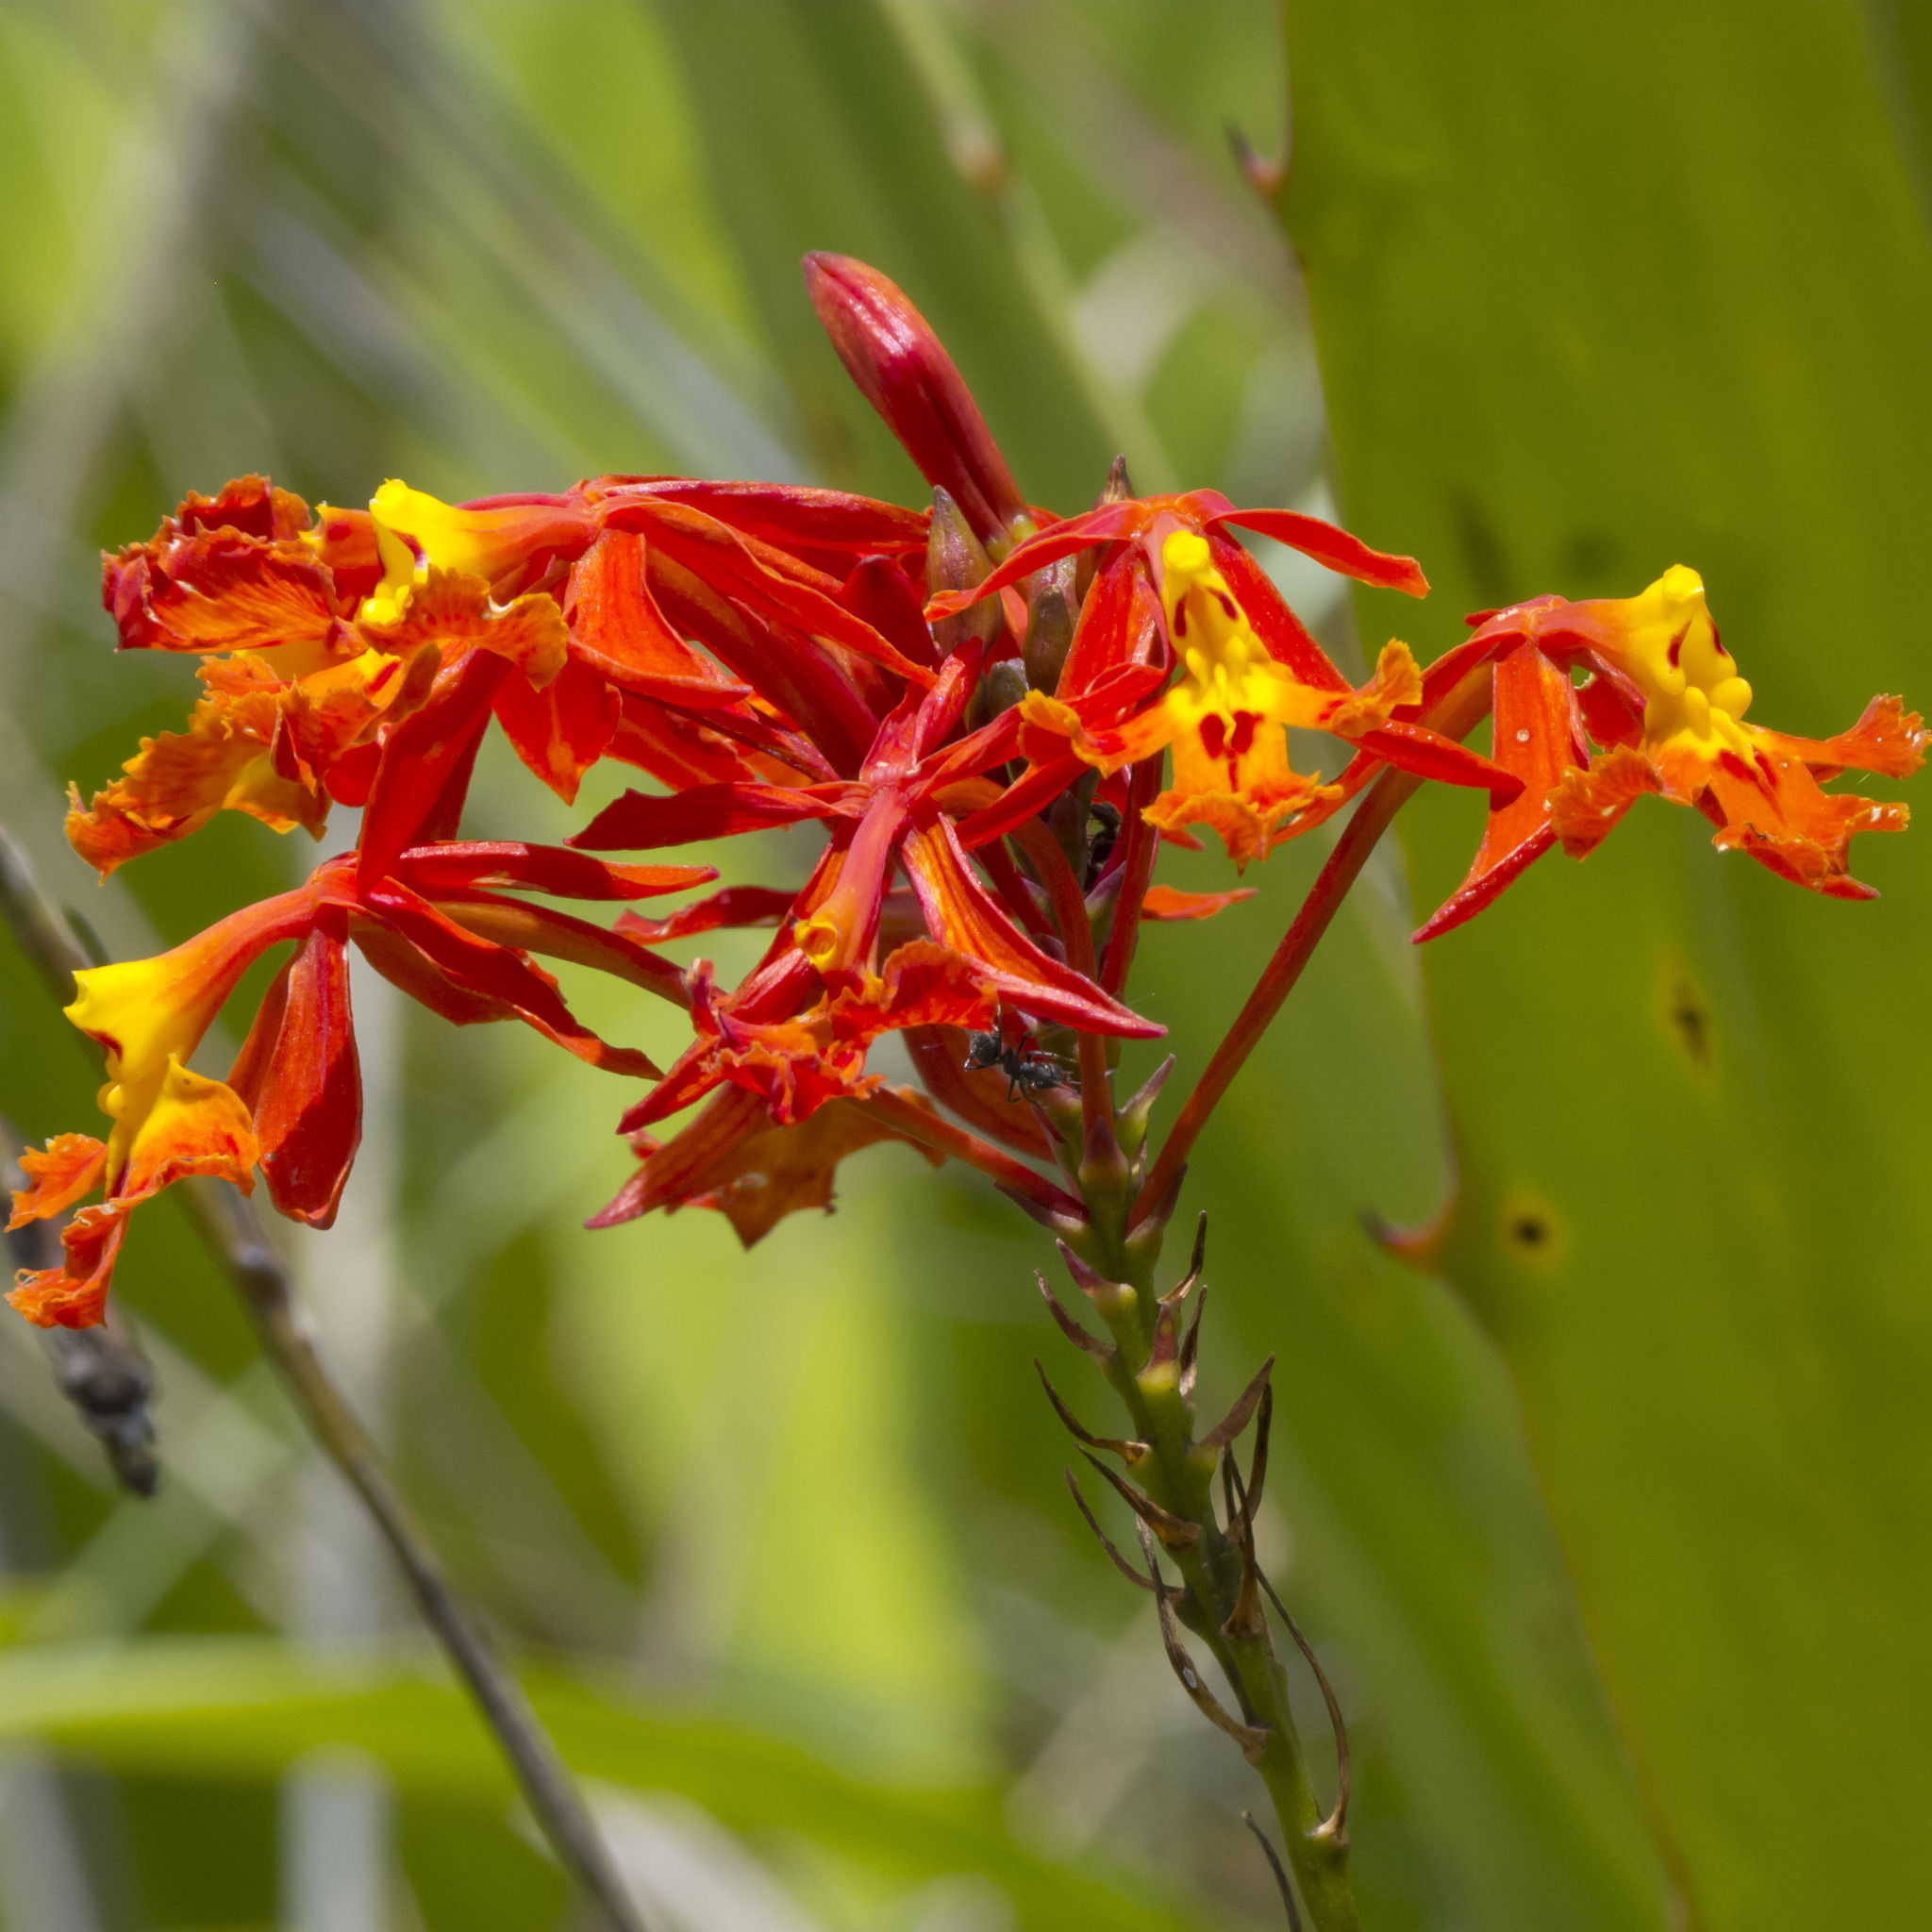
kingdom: Plantae
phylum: Tracheophyta
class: Liliopsida
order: Asparagales
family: Orchidaceae
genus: Epidendrum
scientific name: Epidendrum ibaguense
